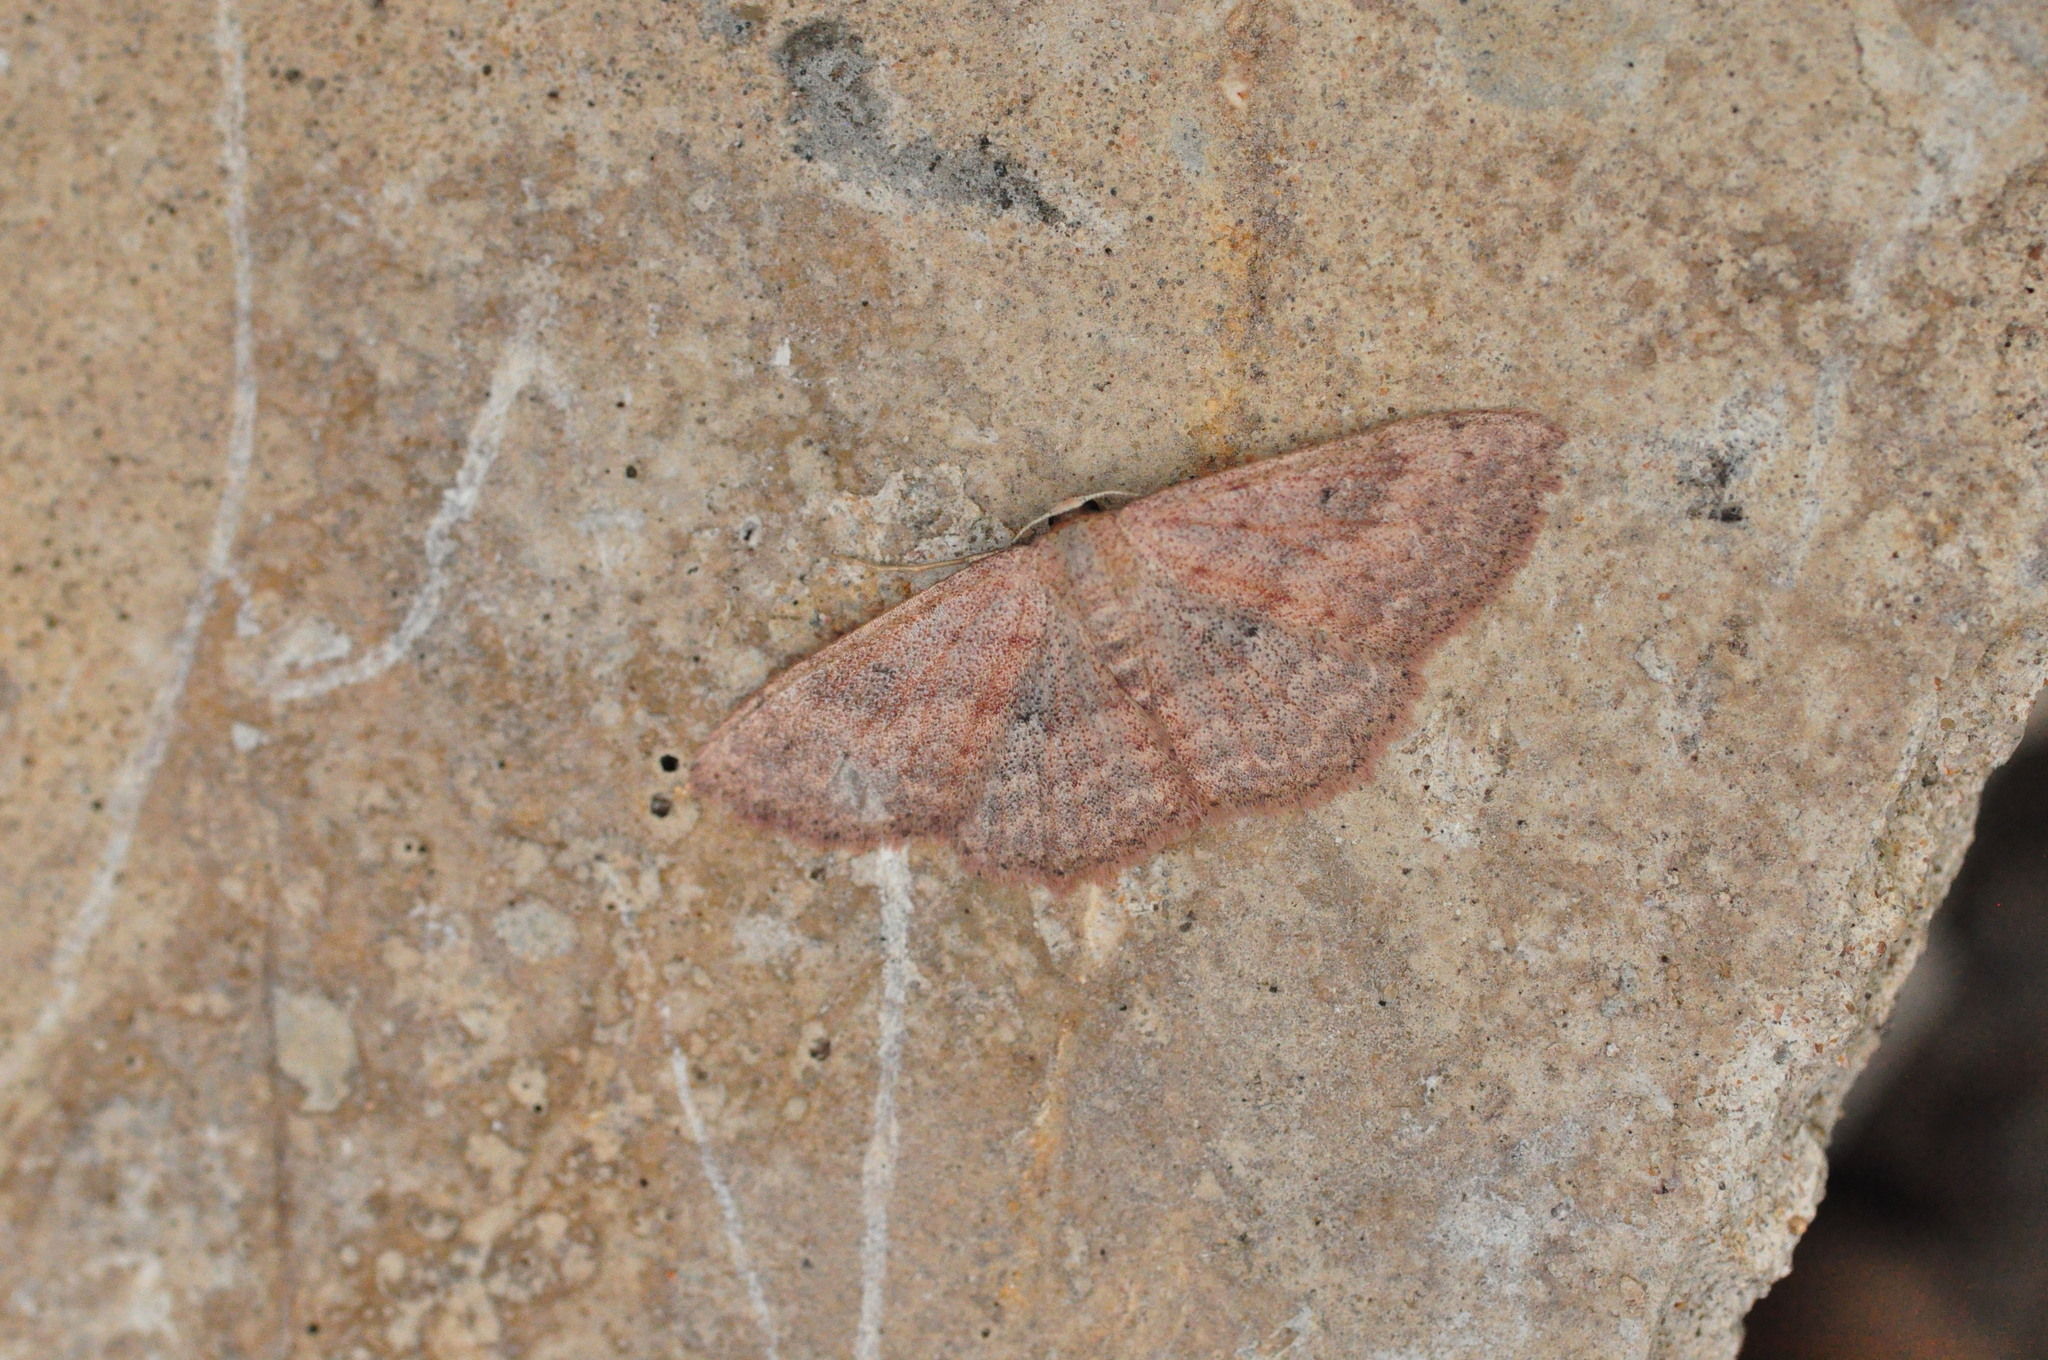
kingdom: Animalia
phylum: Arthropoda
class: Insecta
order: Lepidoptera
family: Geometridae
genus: Scopula
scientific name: Scopula guancharia
